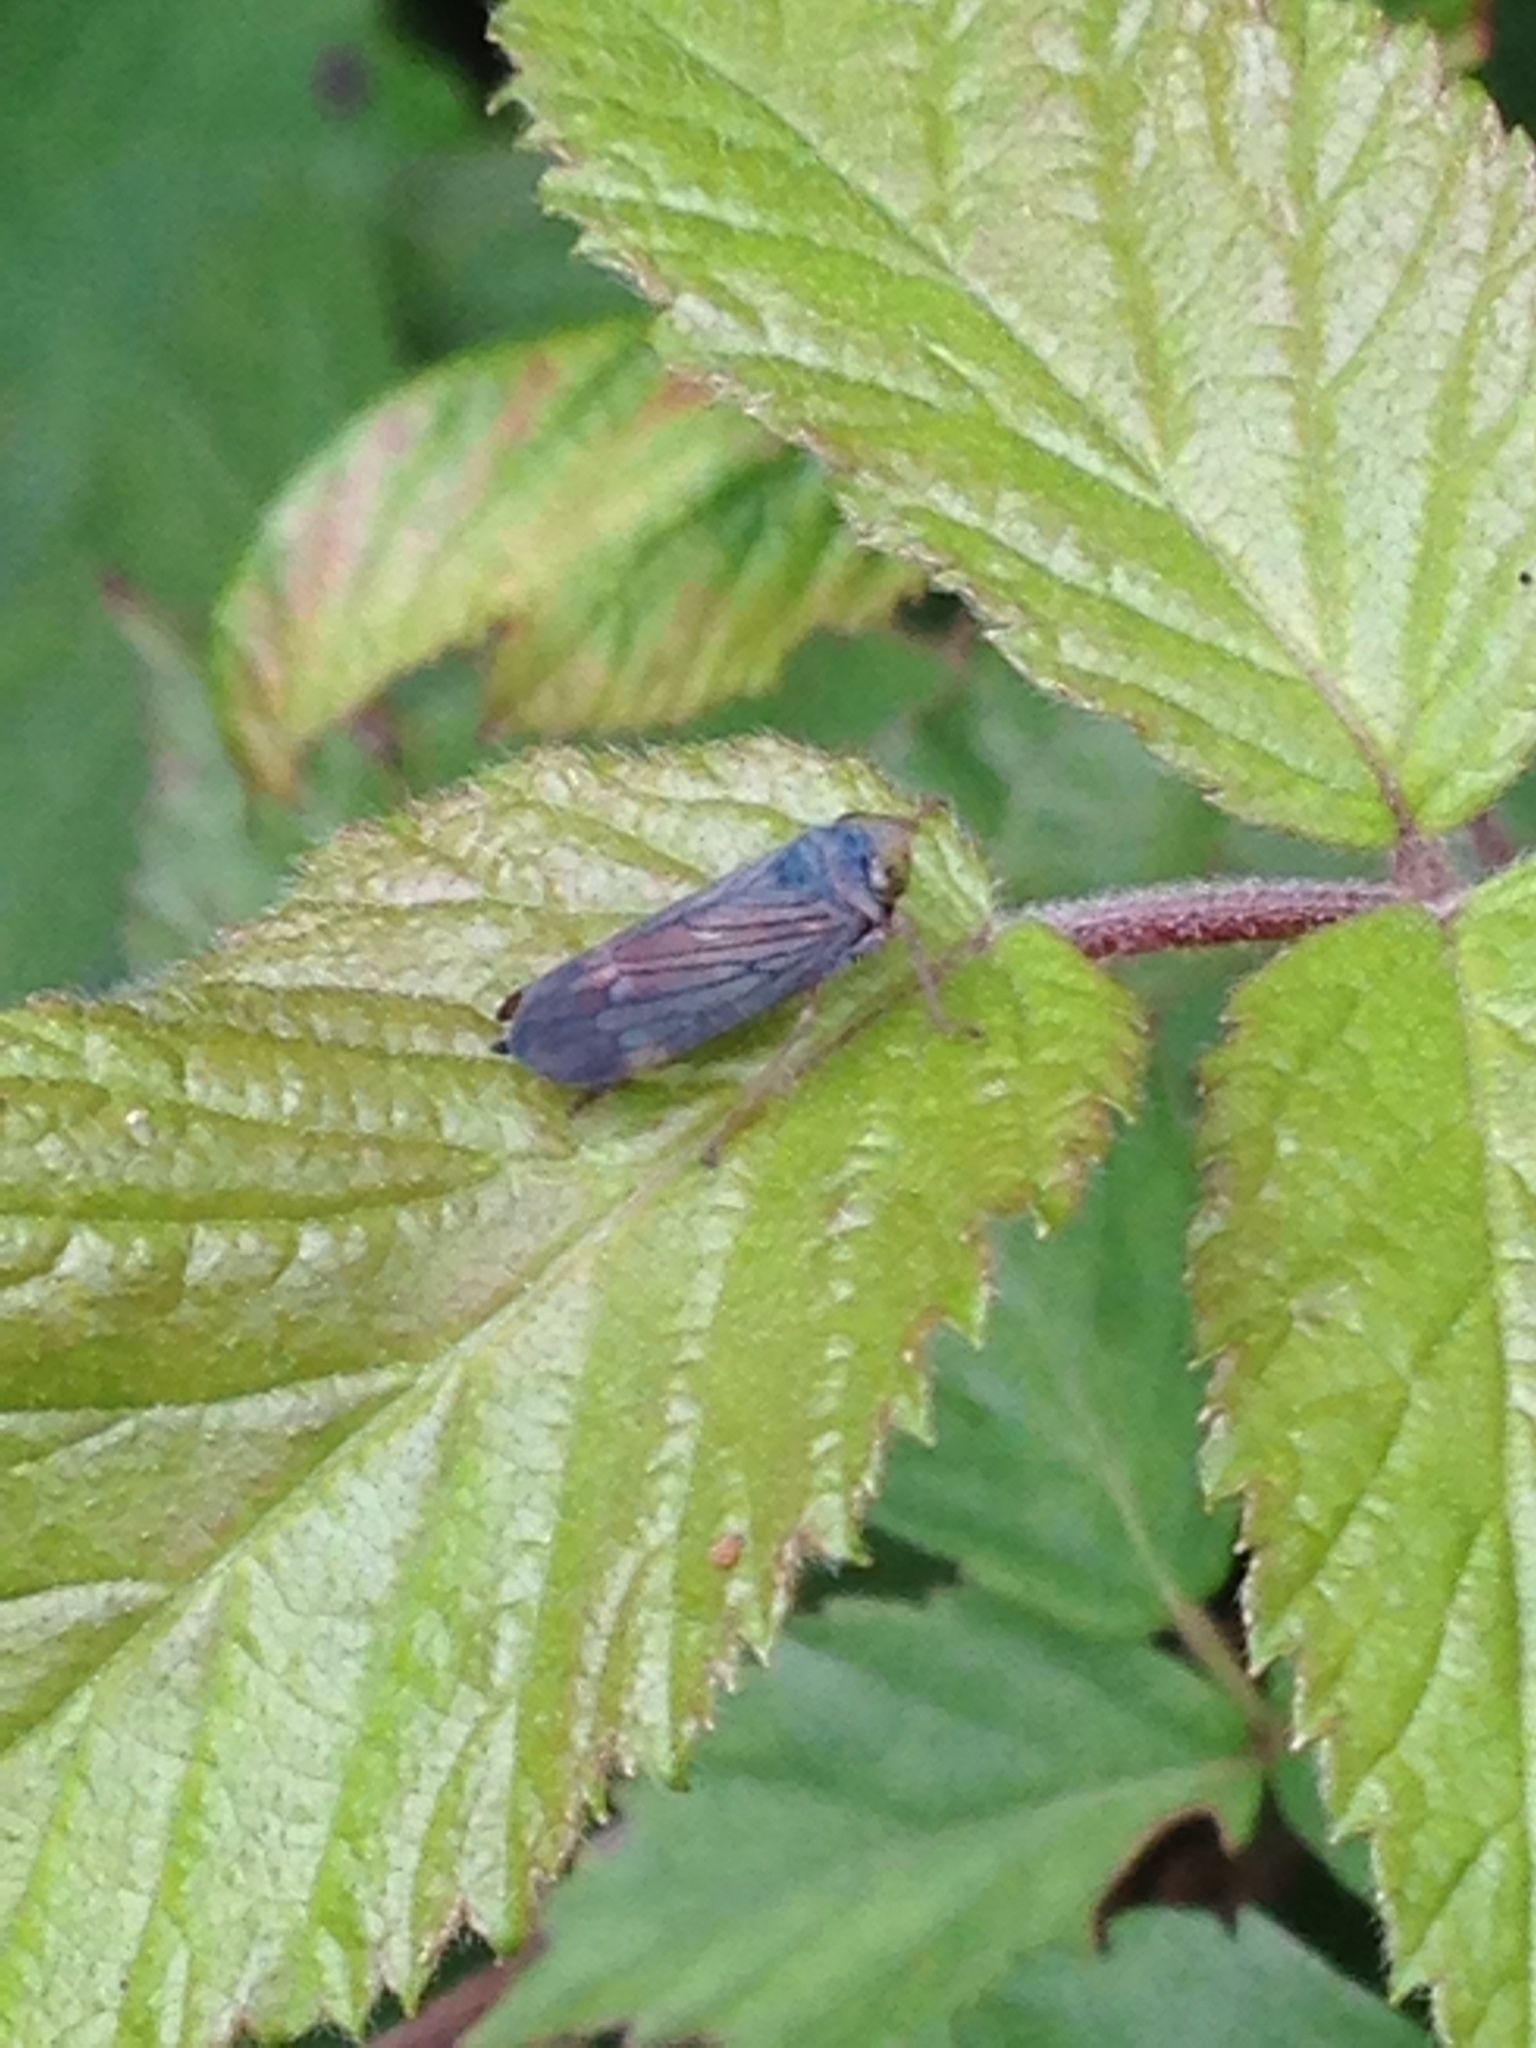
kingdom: Animalia
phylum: Arthropoda
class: Insecta
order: Hemiptera
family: Cicadellidae
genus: Jikradia
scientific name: Jikradia olitoria
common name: Coppery leafhopper
